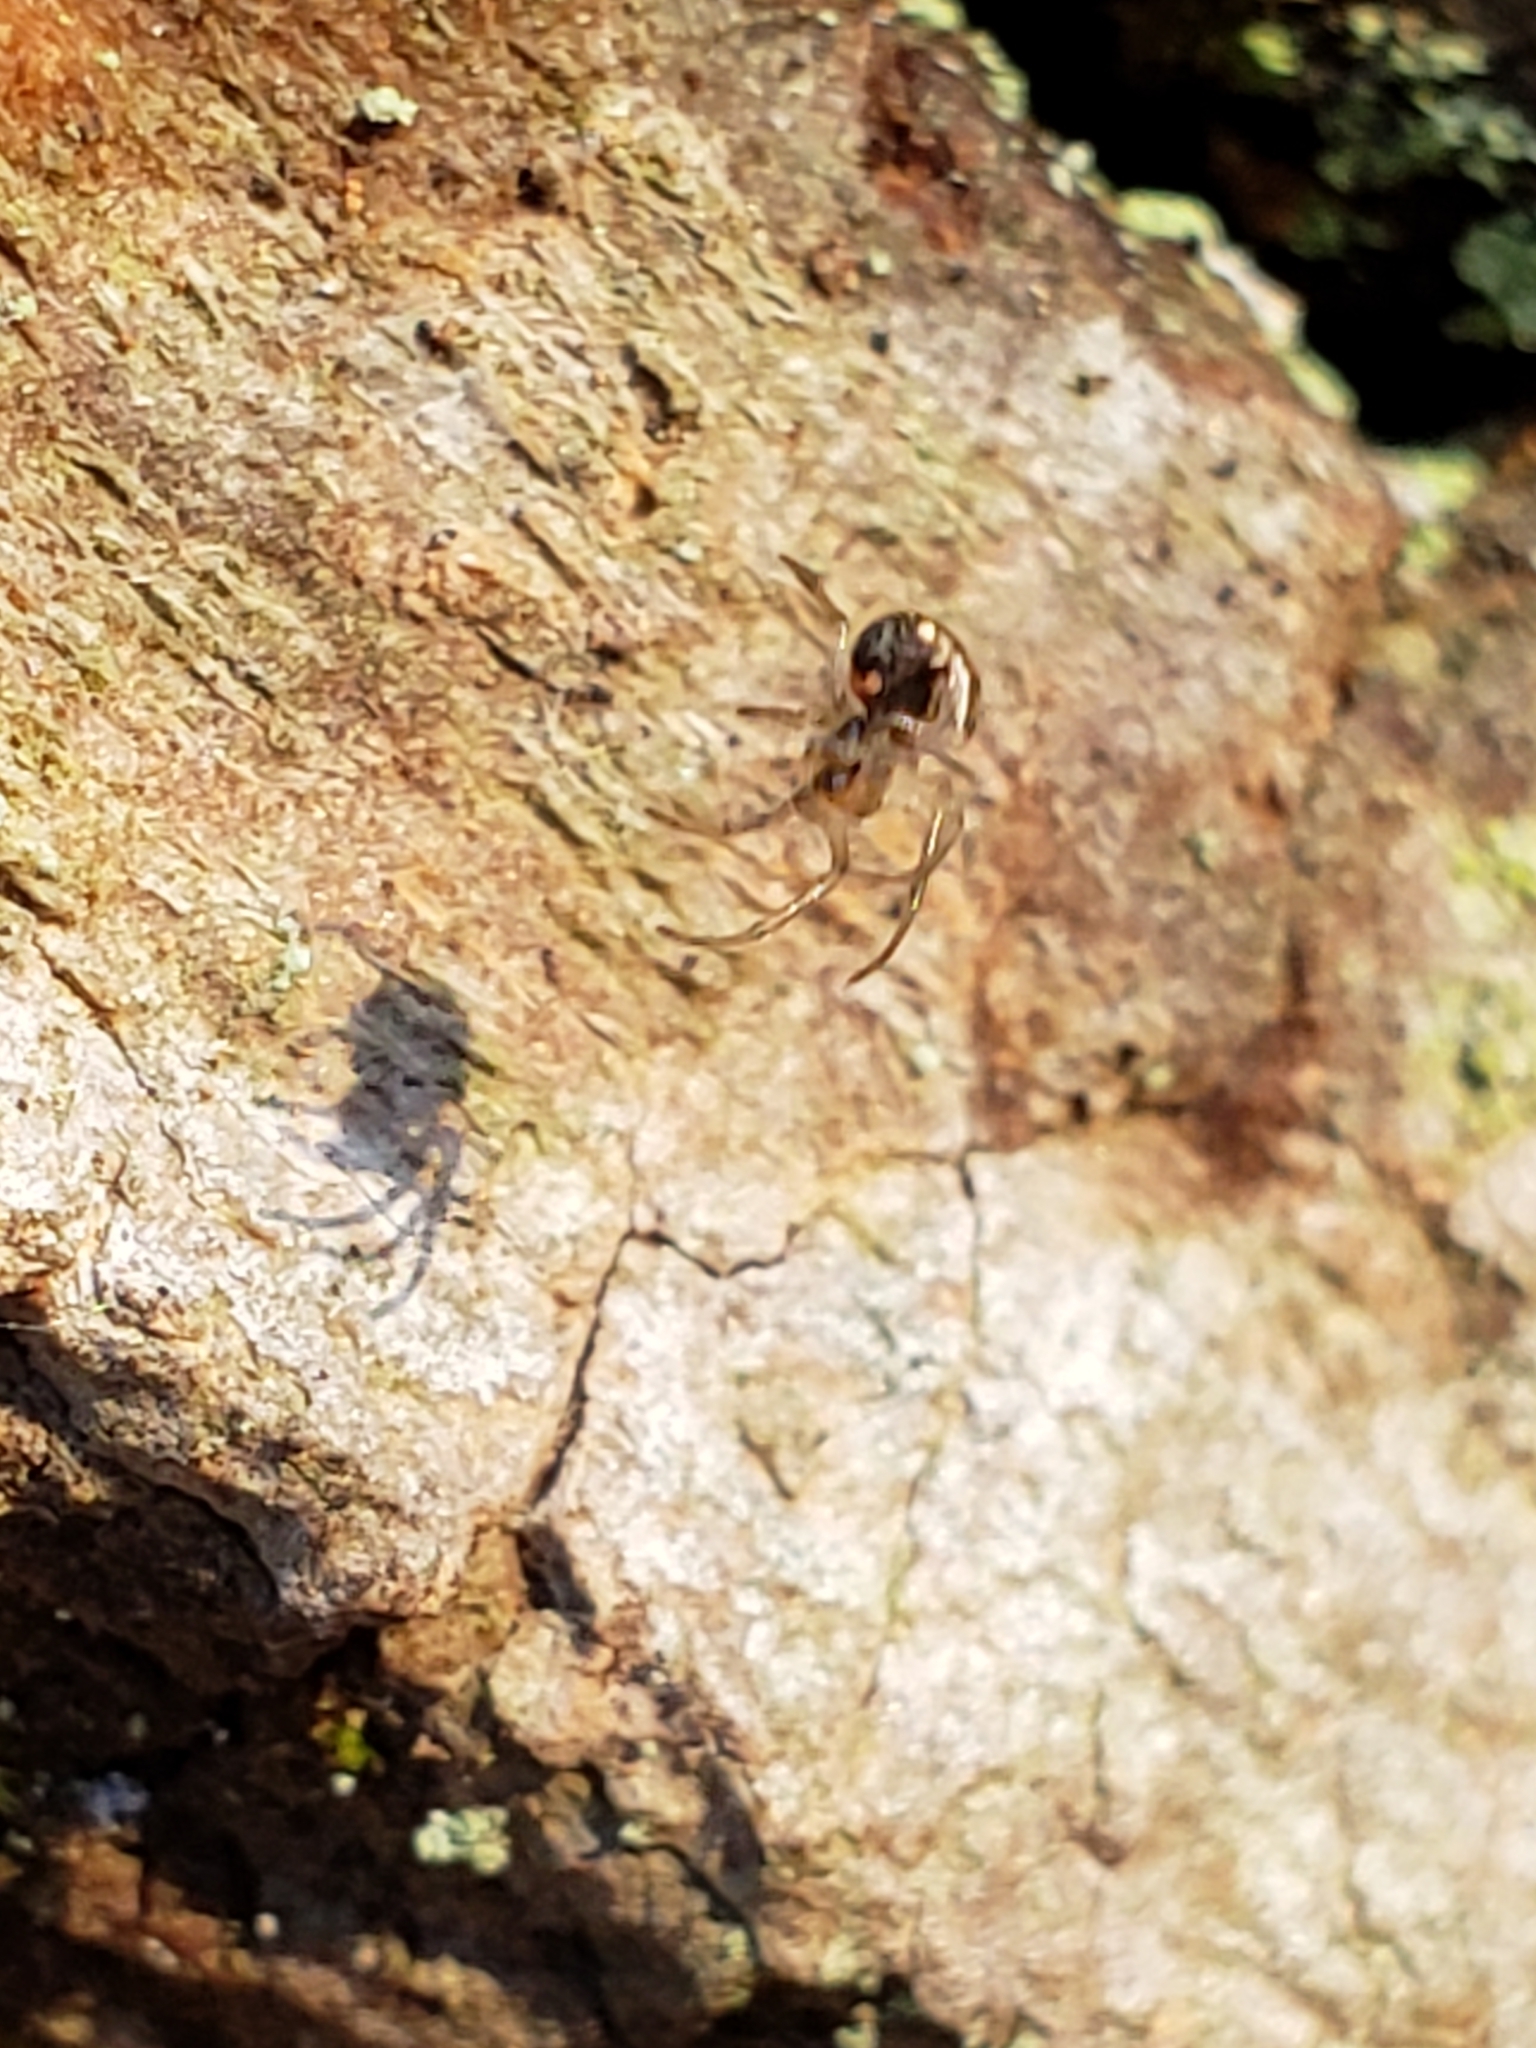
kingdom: Animalia
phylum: Arthropoda
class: Arachnida
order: Araneae
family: Tetragnathidae
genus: Leucauge
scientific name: Leucauge venusta
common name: Longjawed orb weavers
